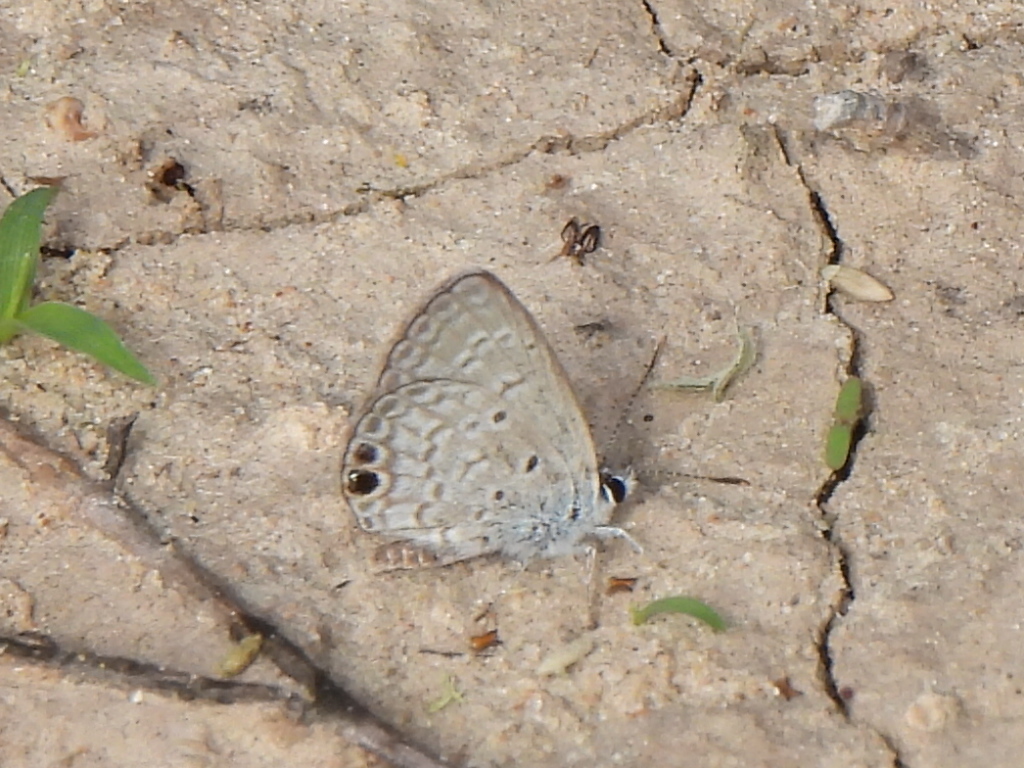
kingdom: Animalia
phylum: Arthropoda
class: Insecta
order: Lepidoptera
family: Lycaenidae
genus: Hemiargus
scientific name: Hemiargus ceraunus
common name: Ceraunus blue
